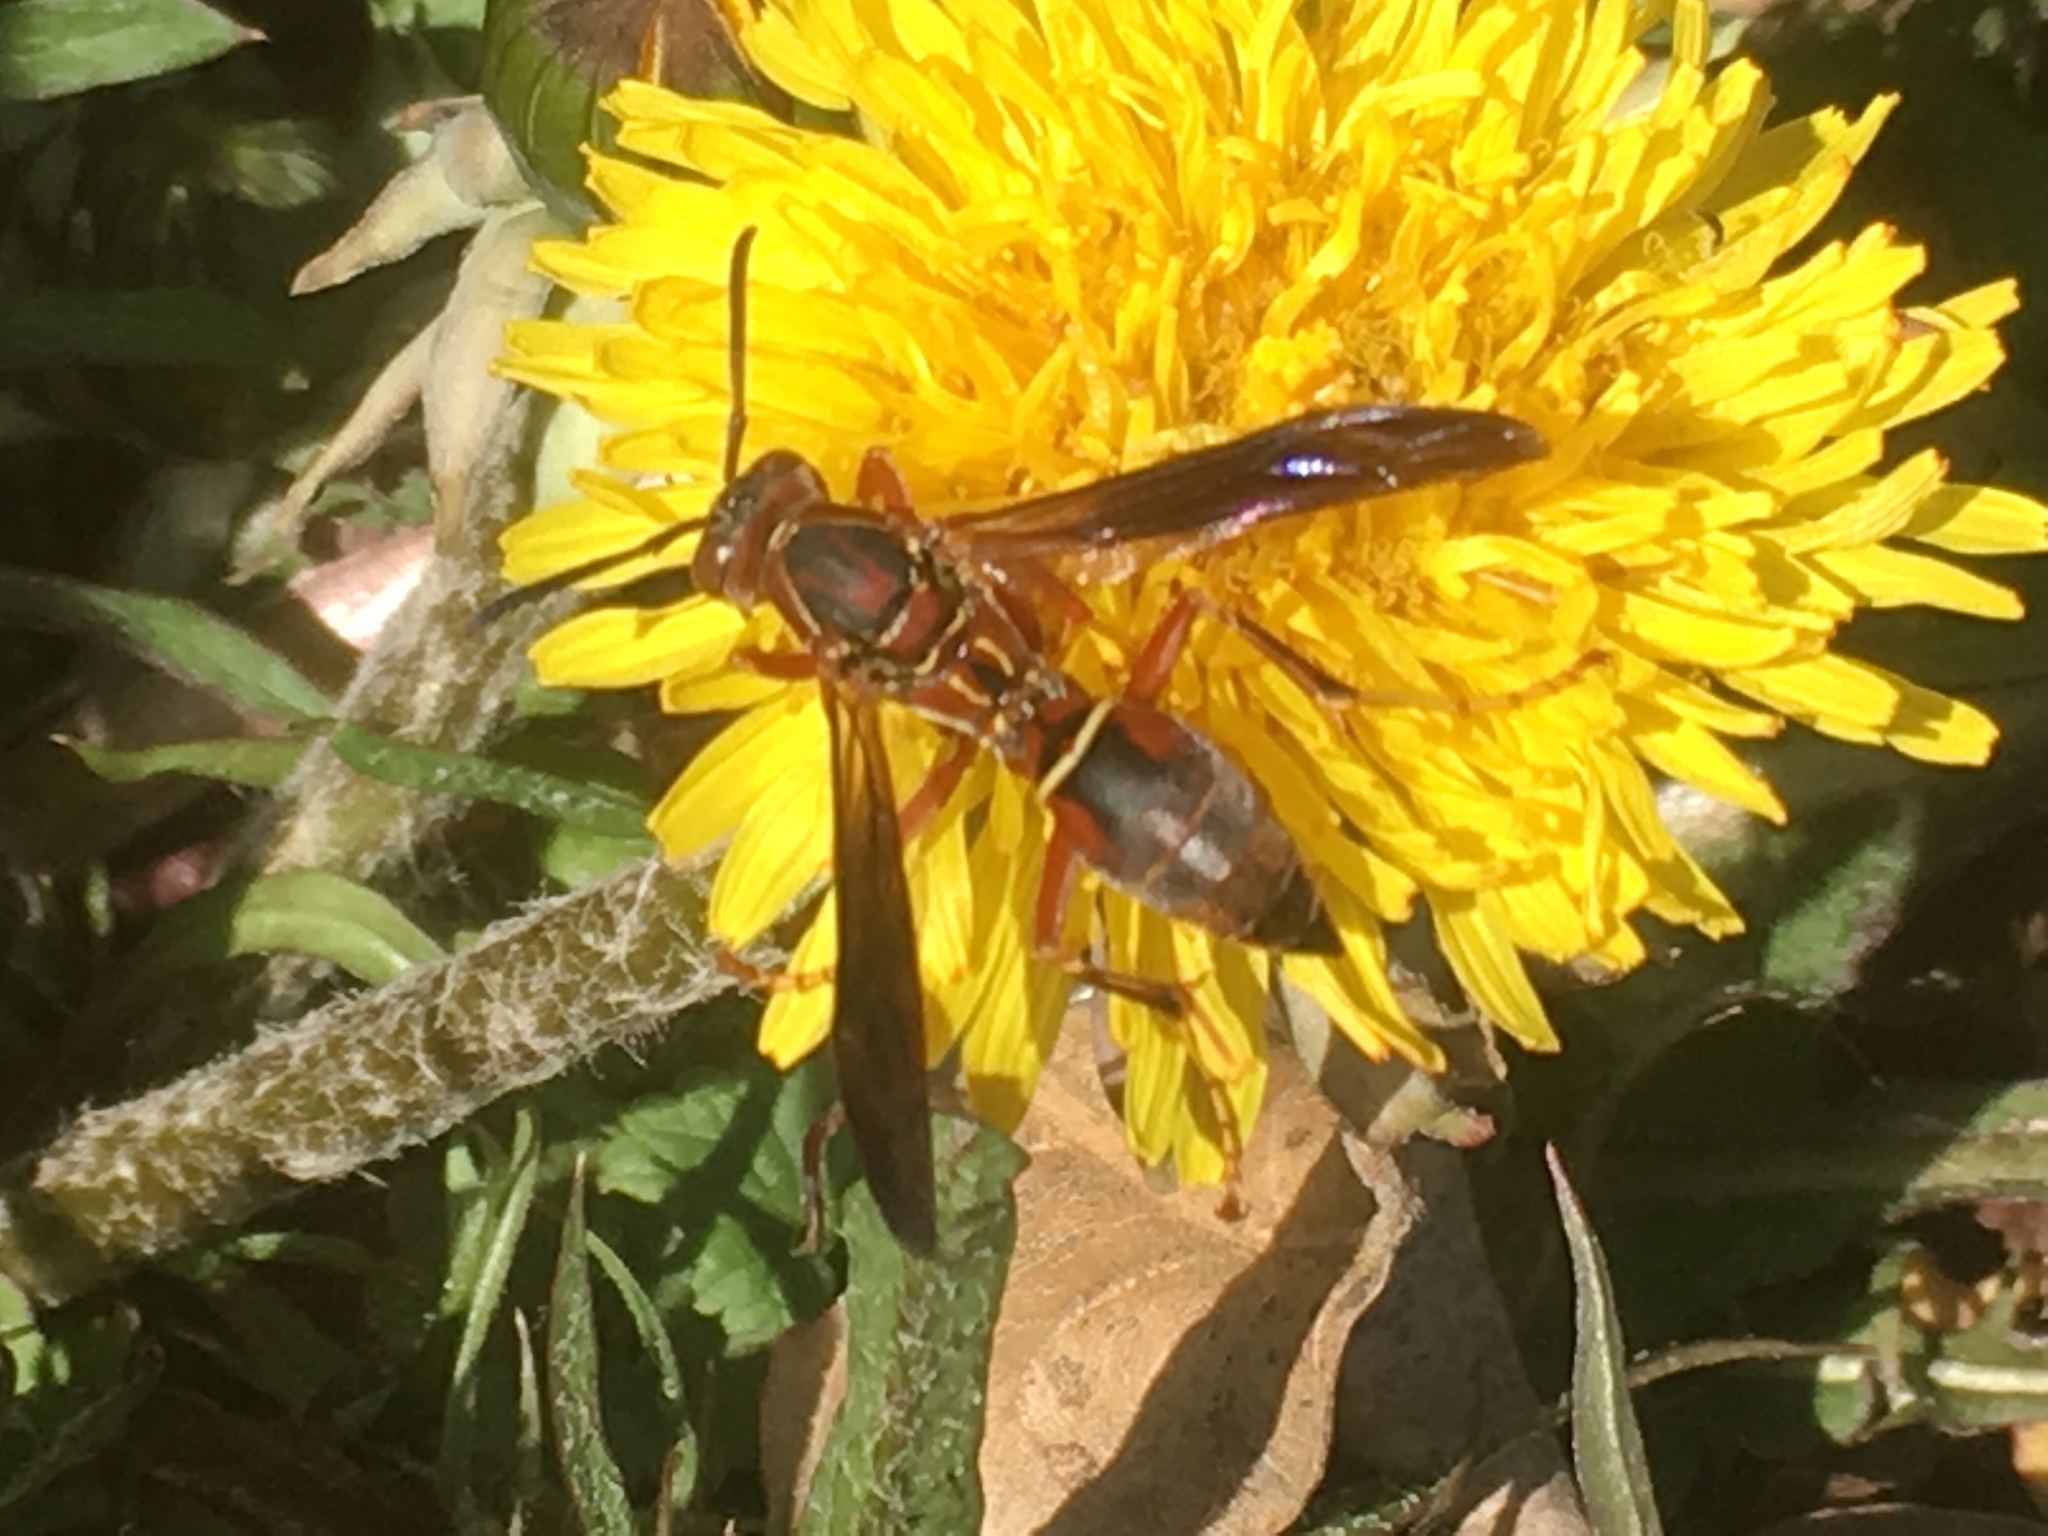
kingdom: Animalia
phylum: Arthropoda
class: Insecta
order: Hymenoptera
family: Eumenidae
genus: Polistes
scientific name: Polistes fuscatus
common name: Dark paper wasp
